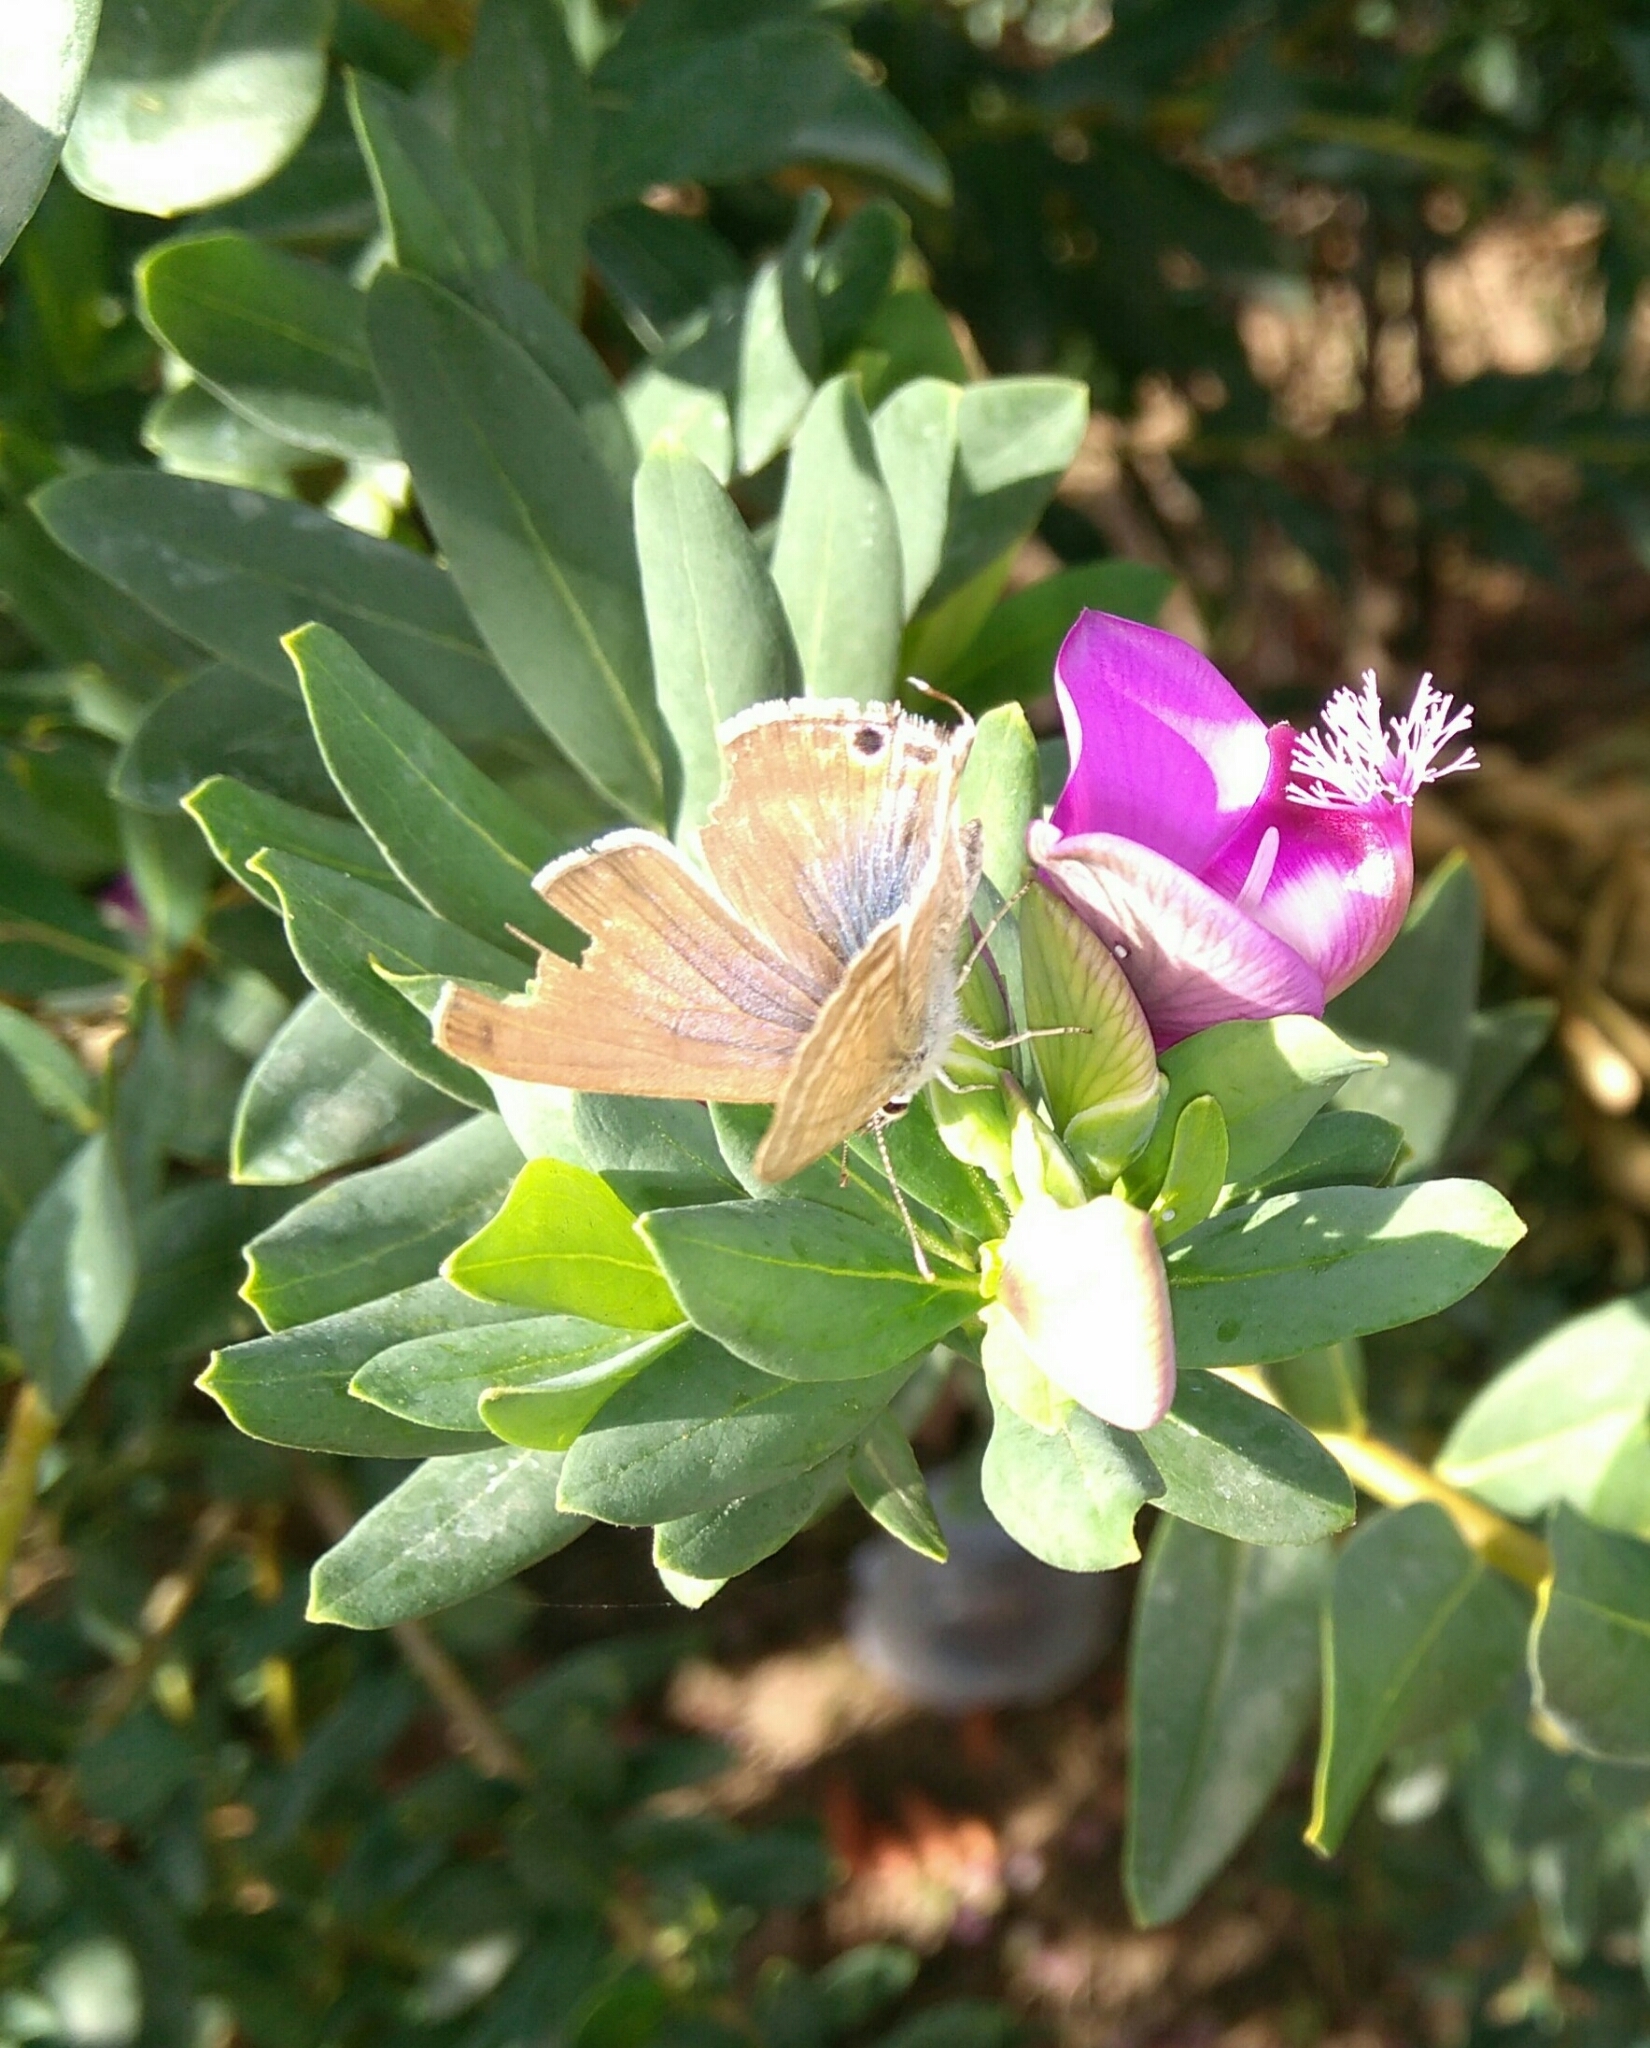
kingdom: Animalia
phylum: Arthropoda
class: Insecta
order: Lepidoptera
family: Lycaenidae
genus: Lampides
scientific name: Lampides boeticus
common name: Long-tailed blue
